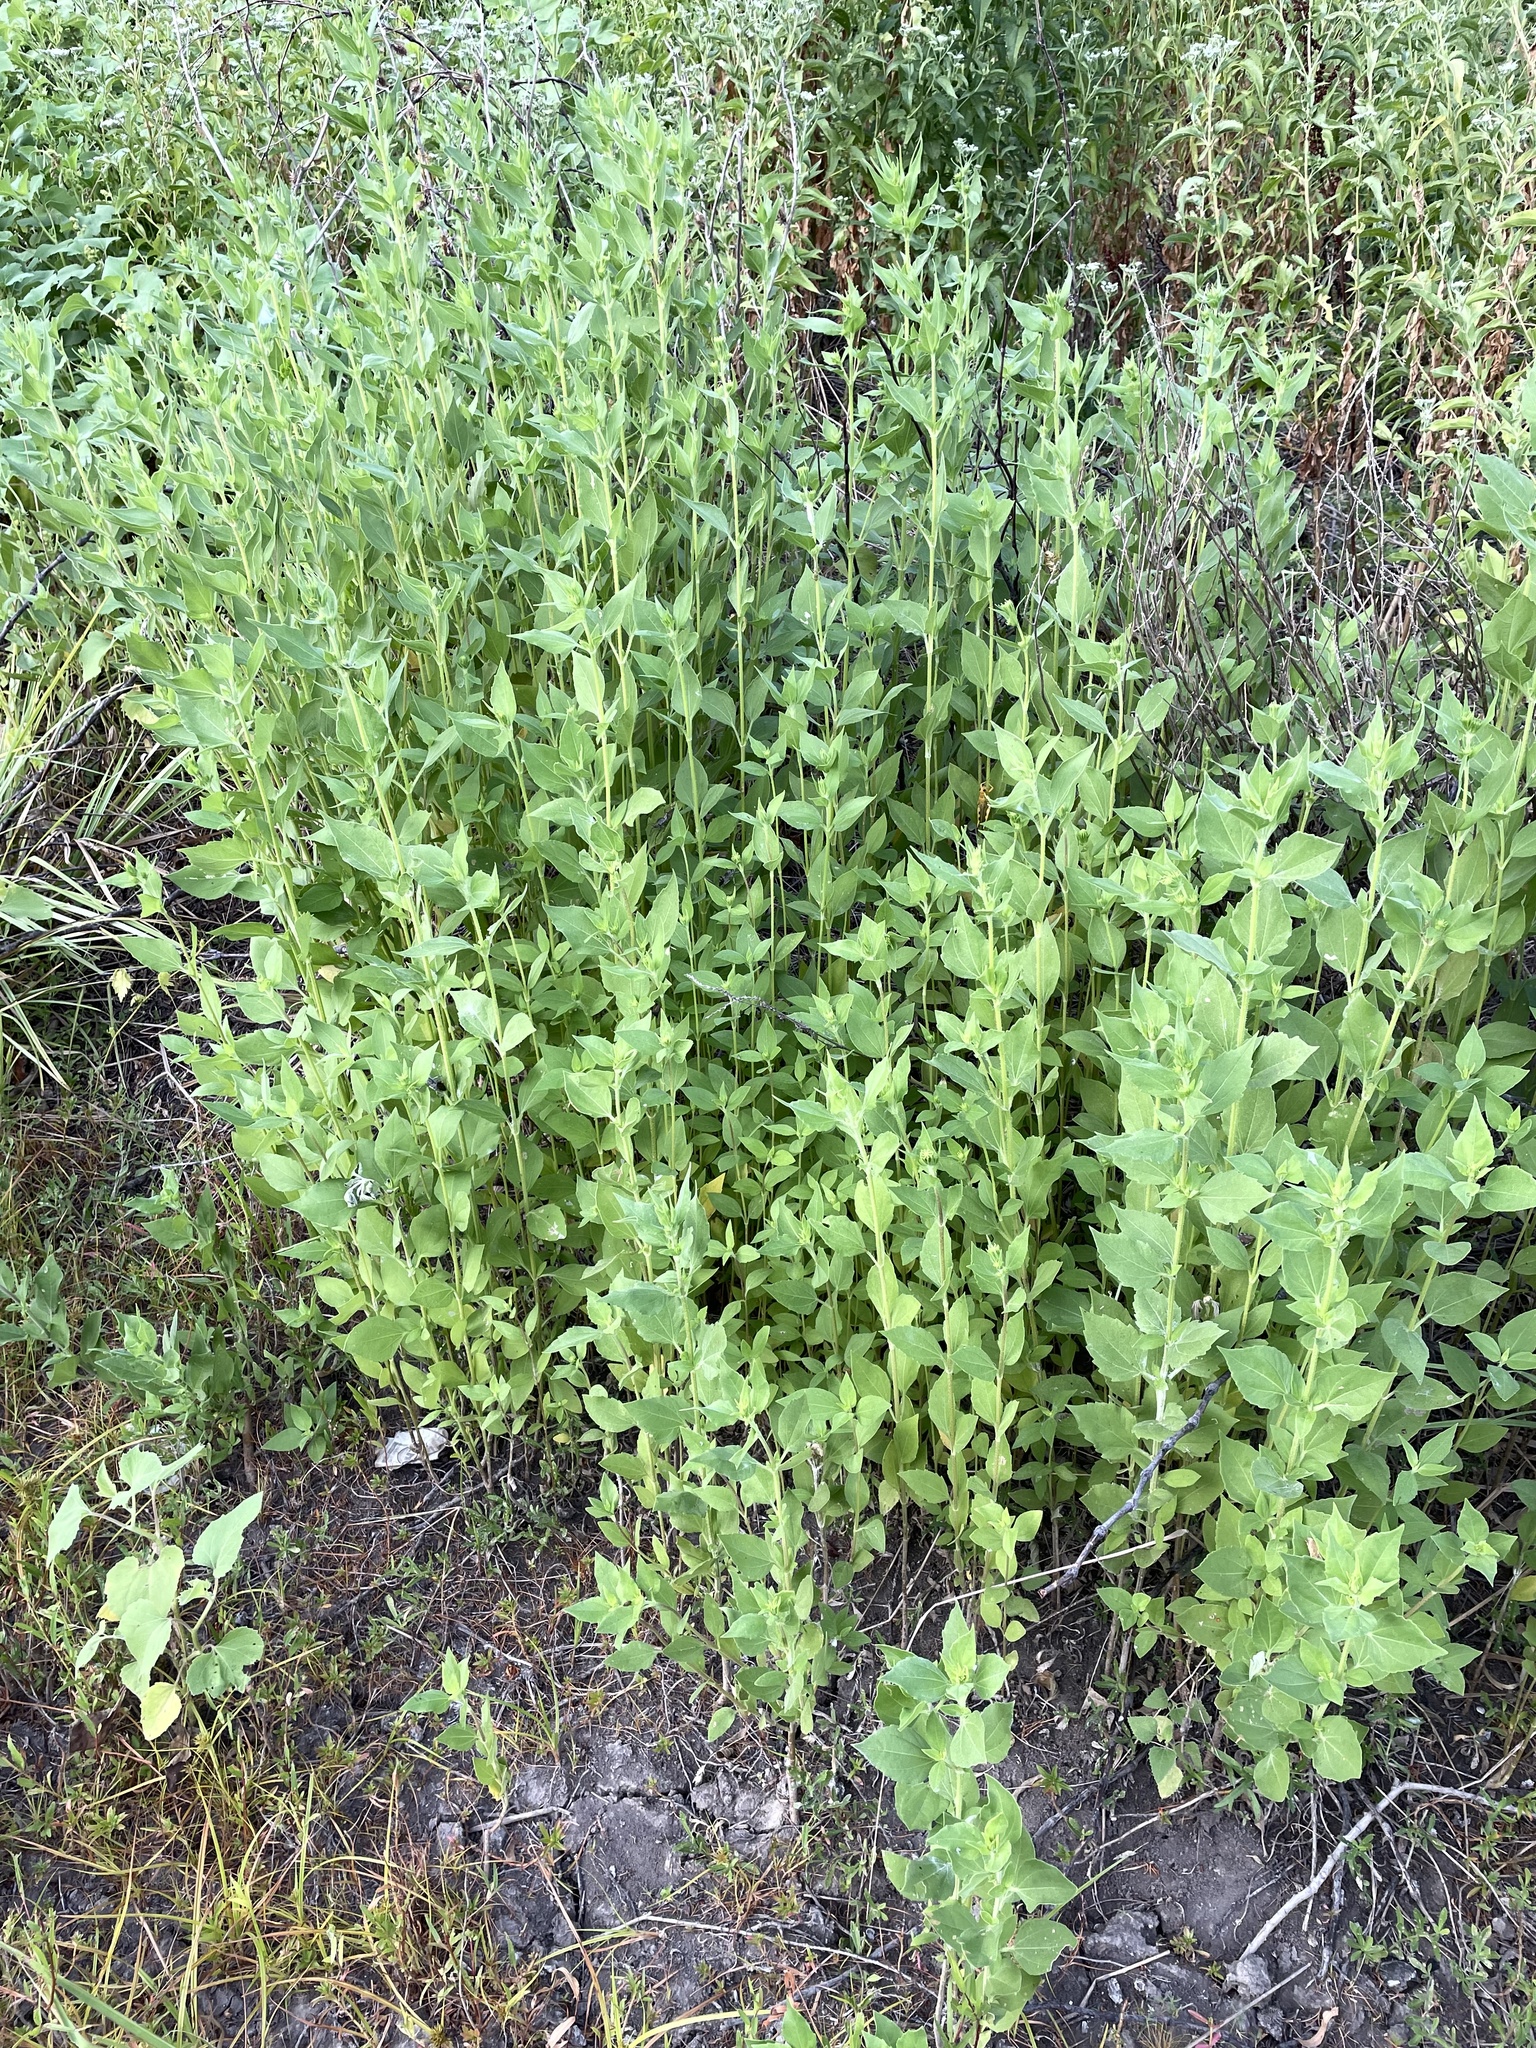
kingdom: Plantae
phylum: Tracheophyta
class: Magnoliopsida
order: Asterales
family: Asteraceae
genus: Iva
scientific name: Iva annua
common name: Marsh-elder
